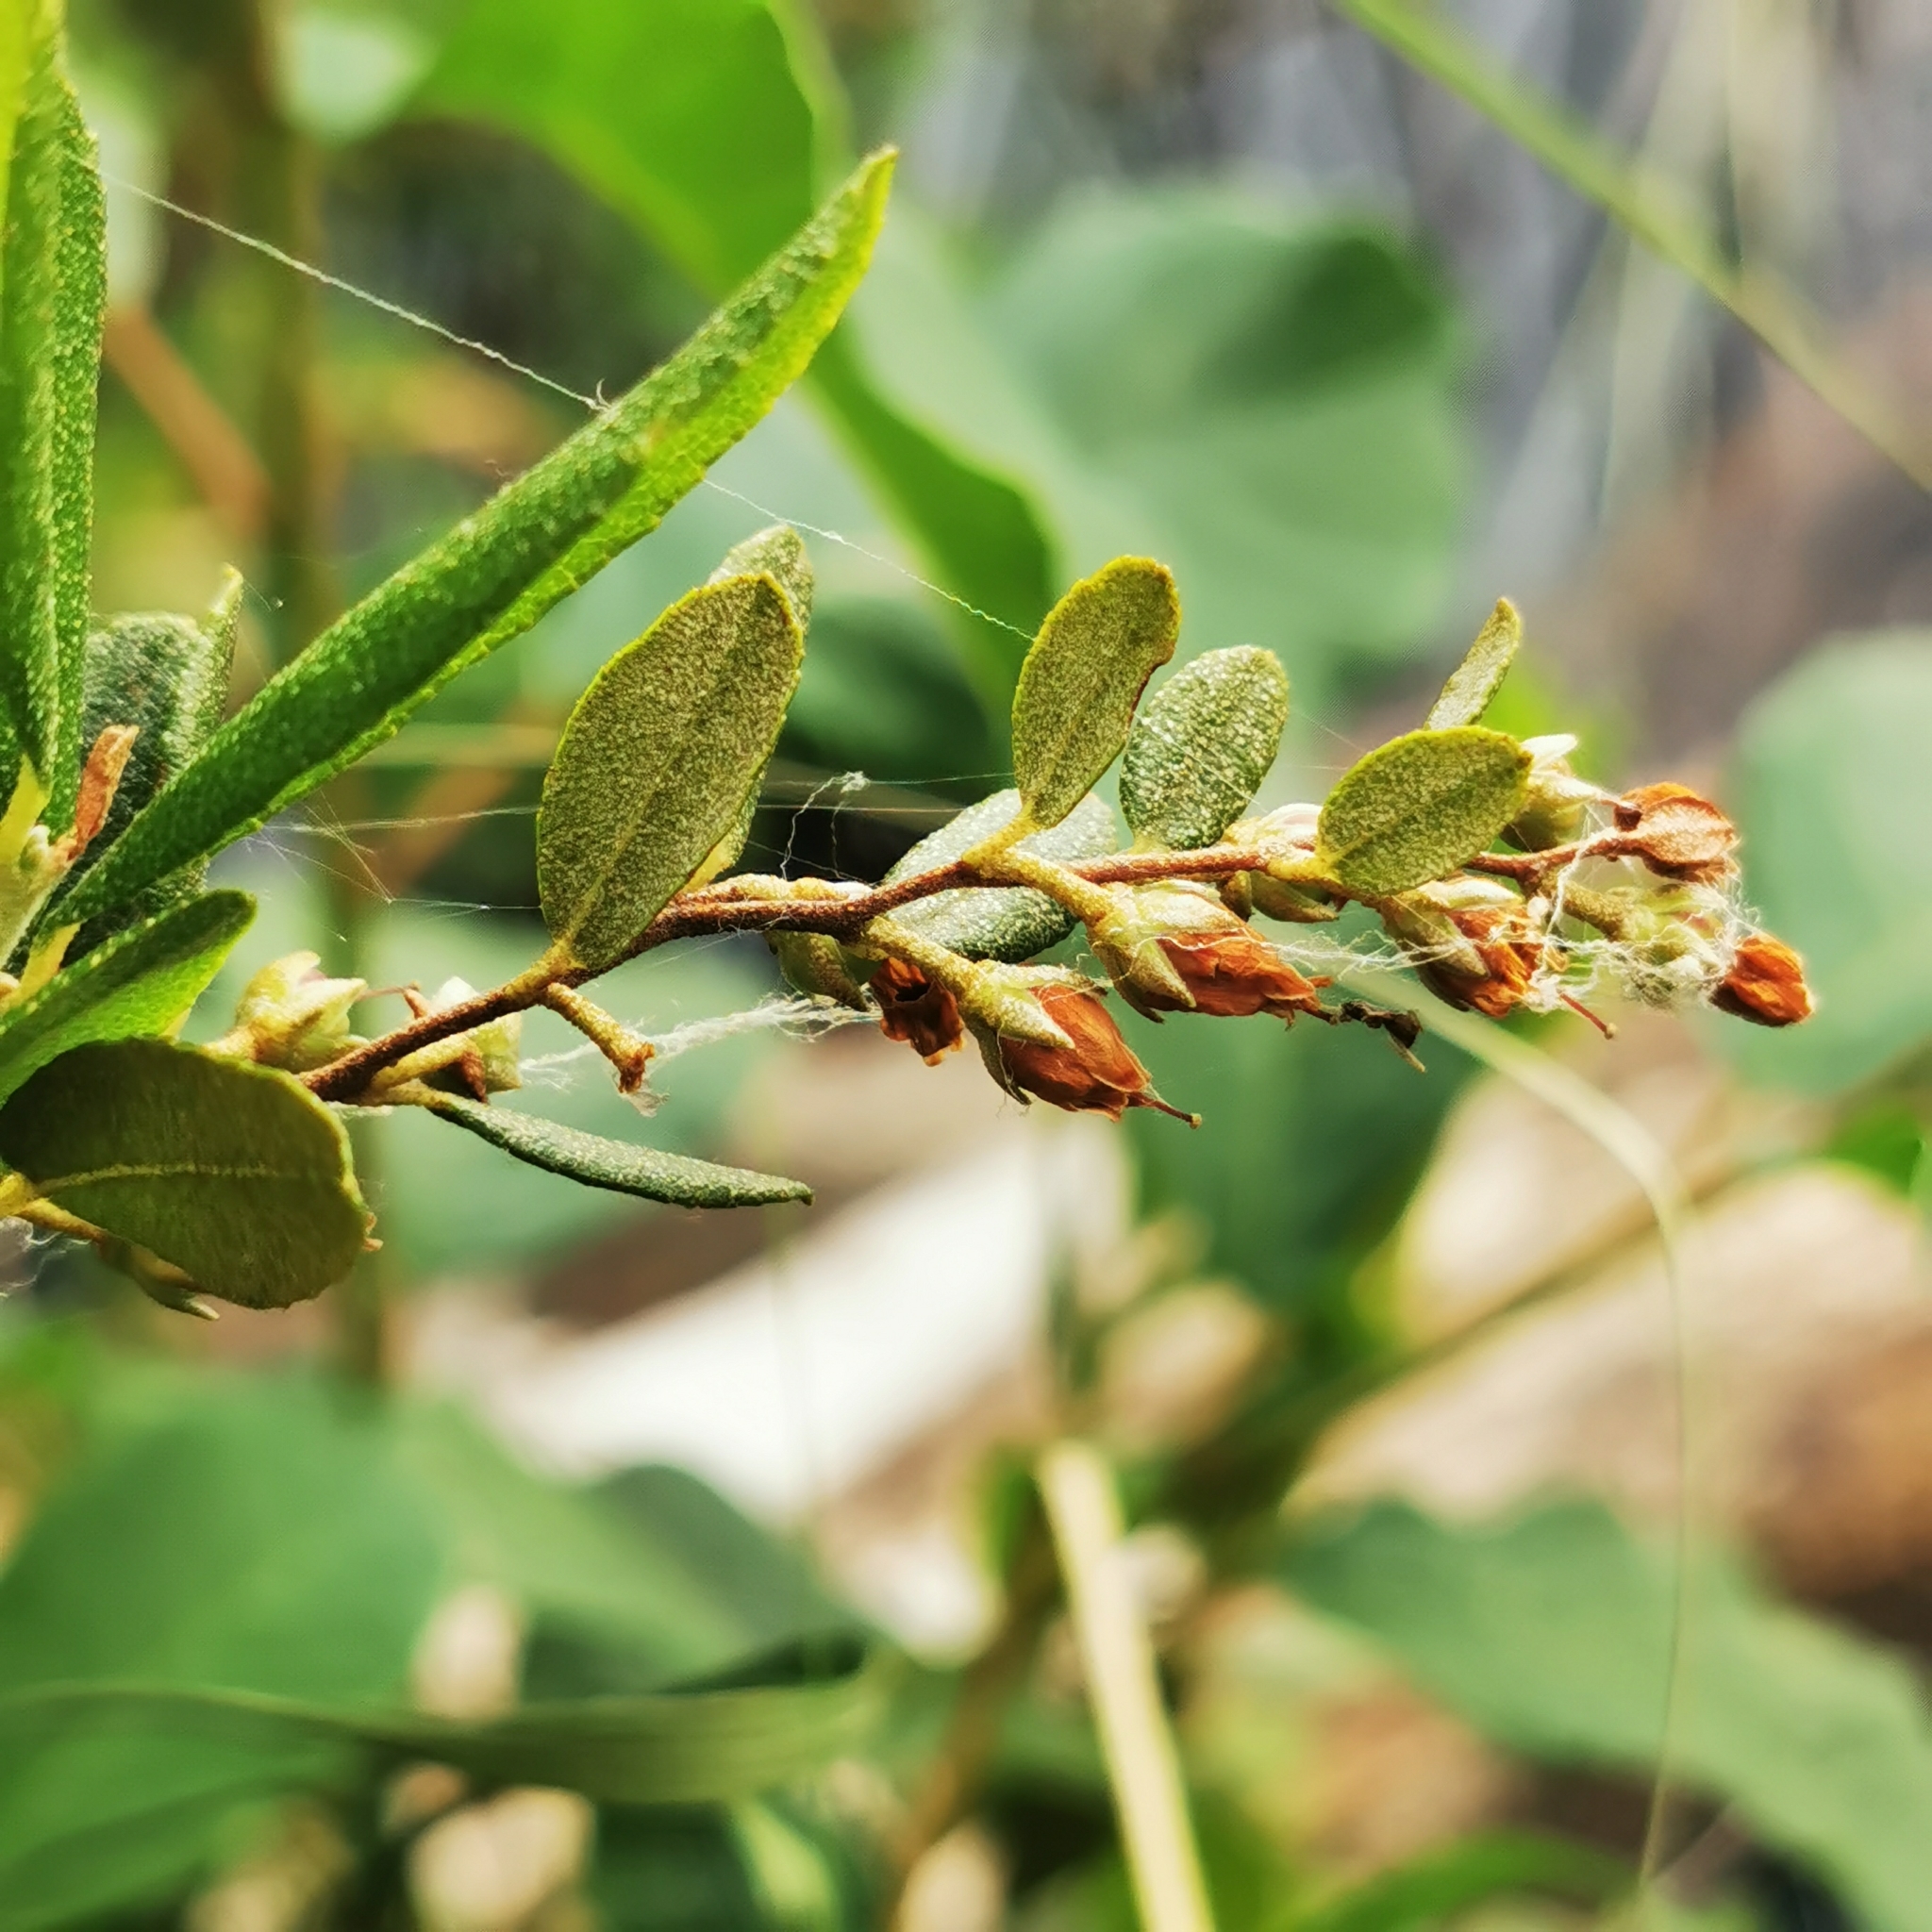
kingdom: Plantae
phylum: Tracheophyta
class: Magnoliopsida
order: Ericales
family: Ericaceae
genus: Chamaedaphne
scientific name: Chamaedaphne calyculata
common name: Leatherleaf
